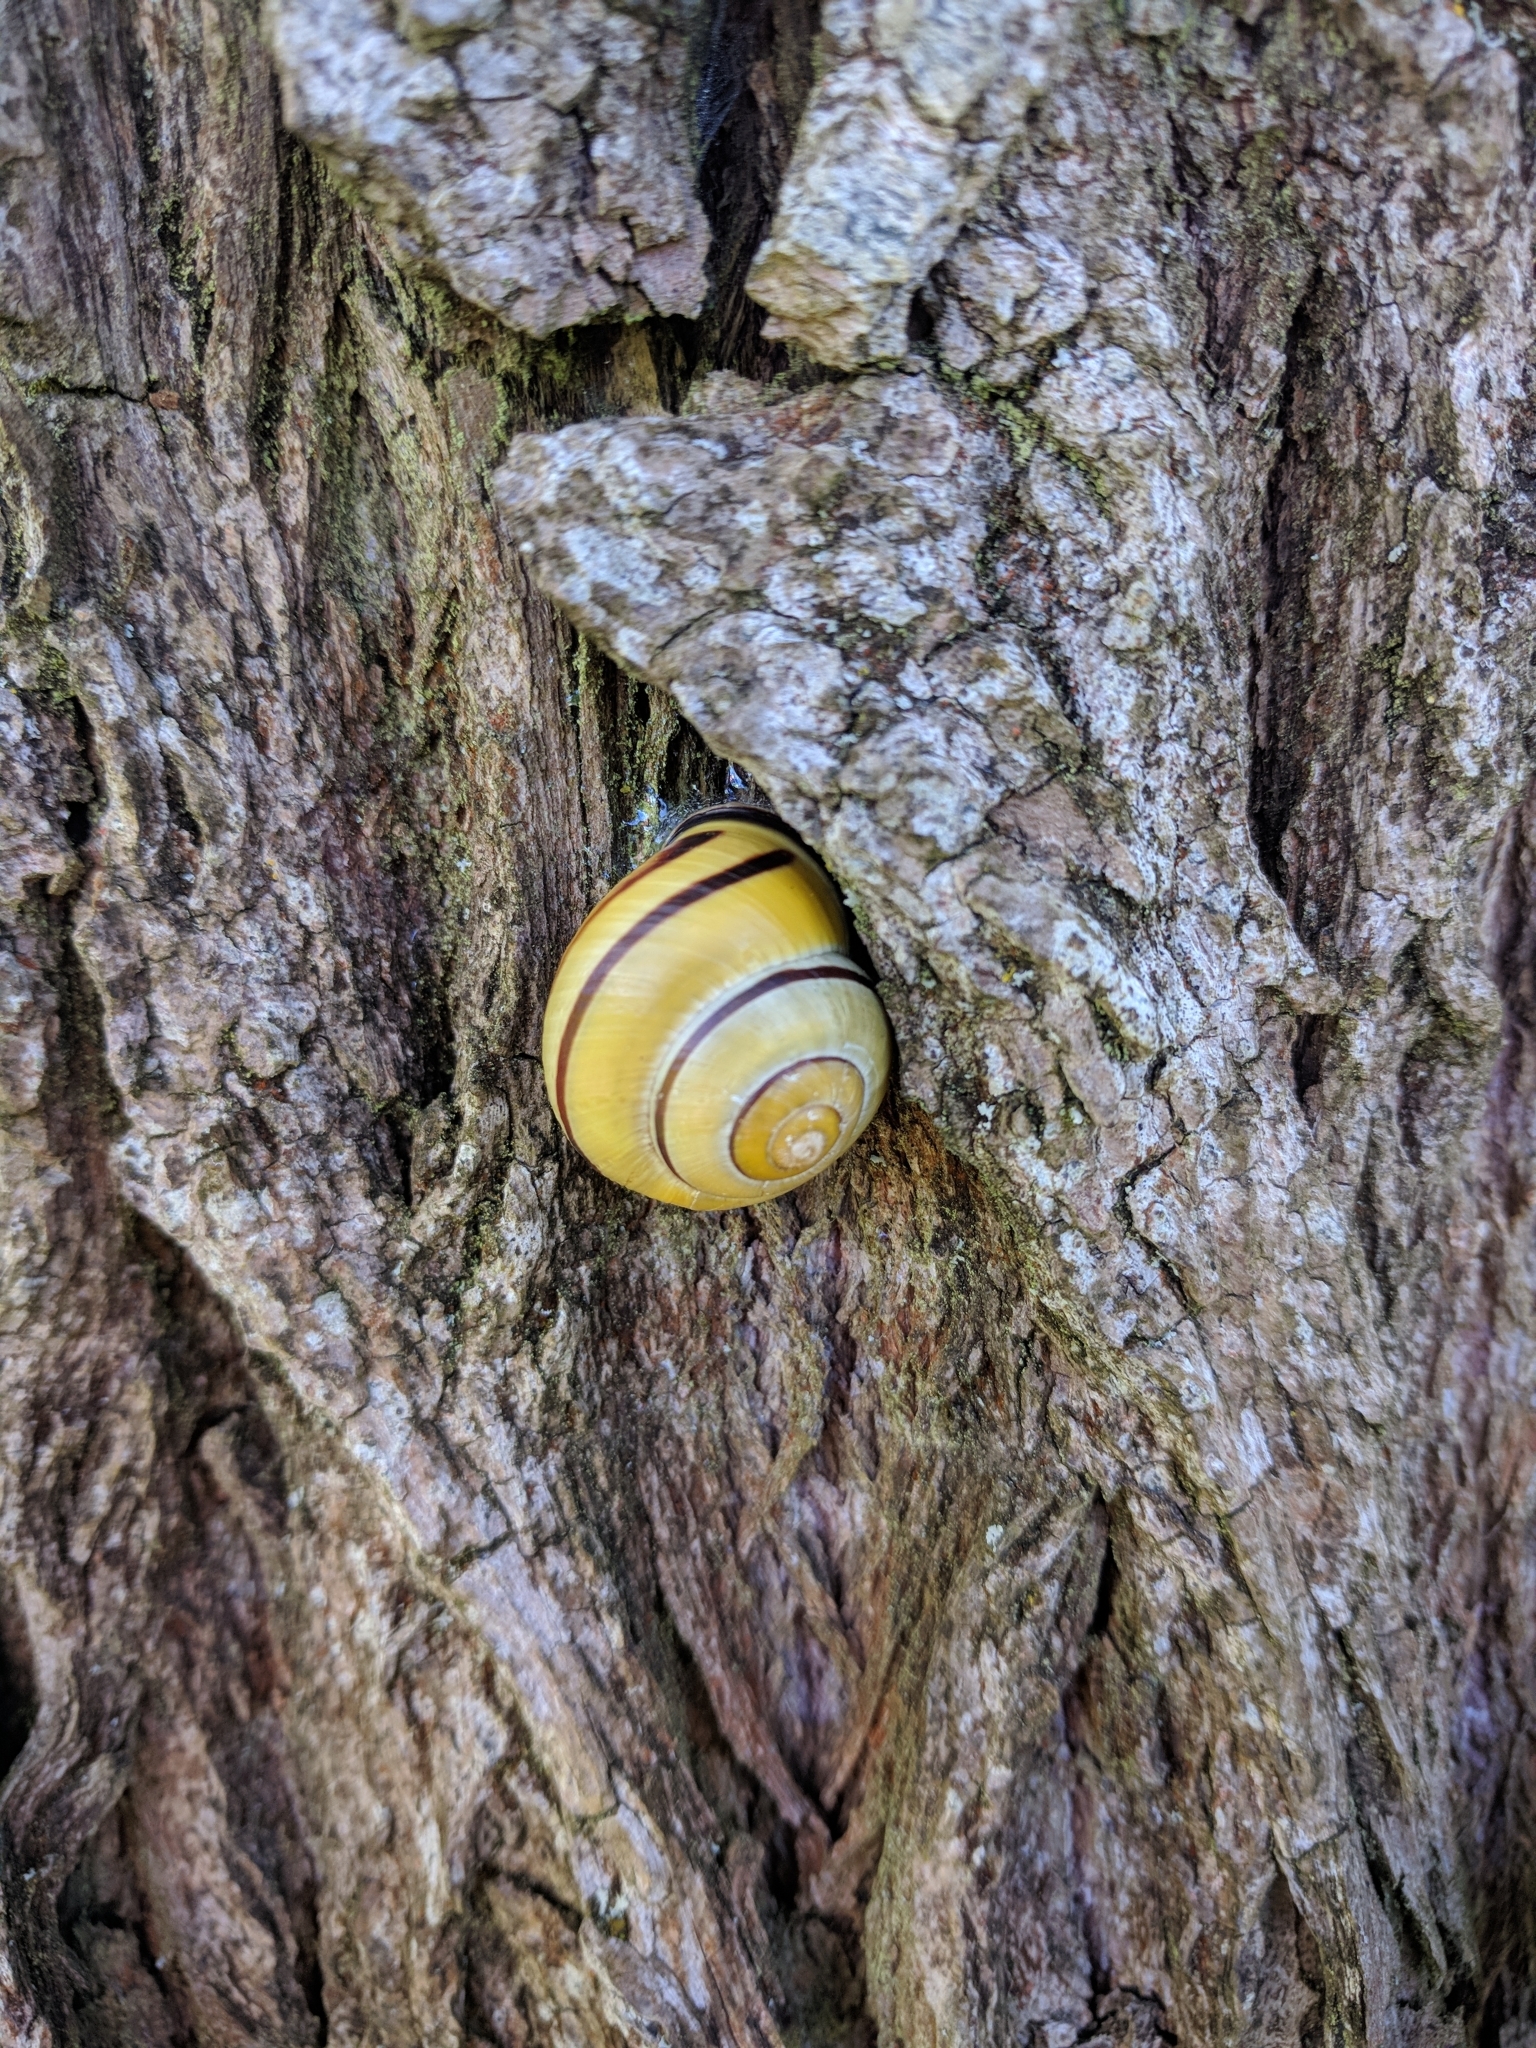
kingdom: Animalia
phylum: Mollusca
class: Gastropoda
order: Stylommatophora
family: Helicidae
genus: Cepaea
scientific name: Cepaea nemoralis
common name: Grovesnail
